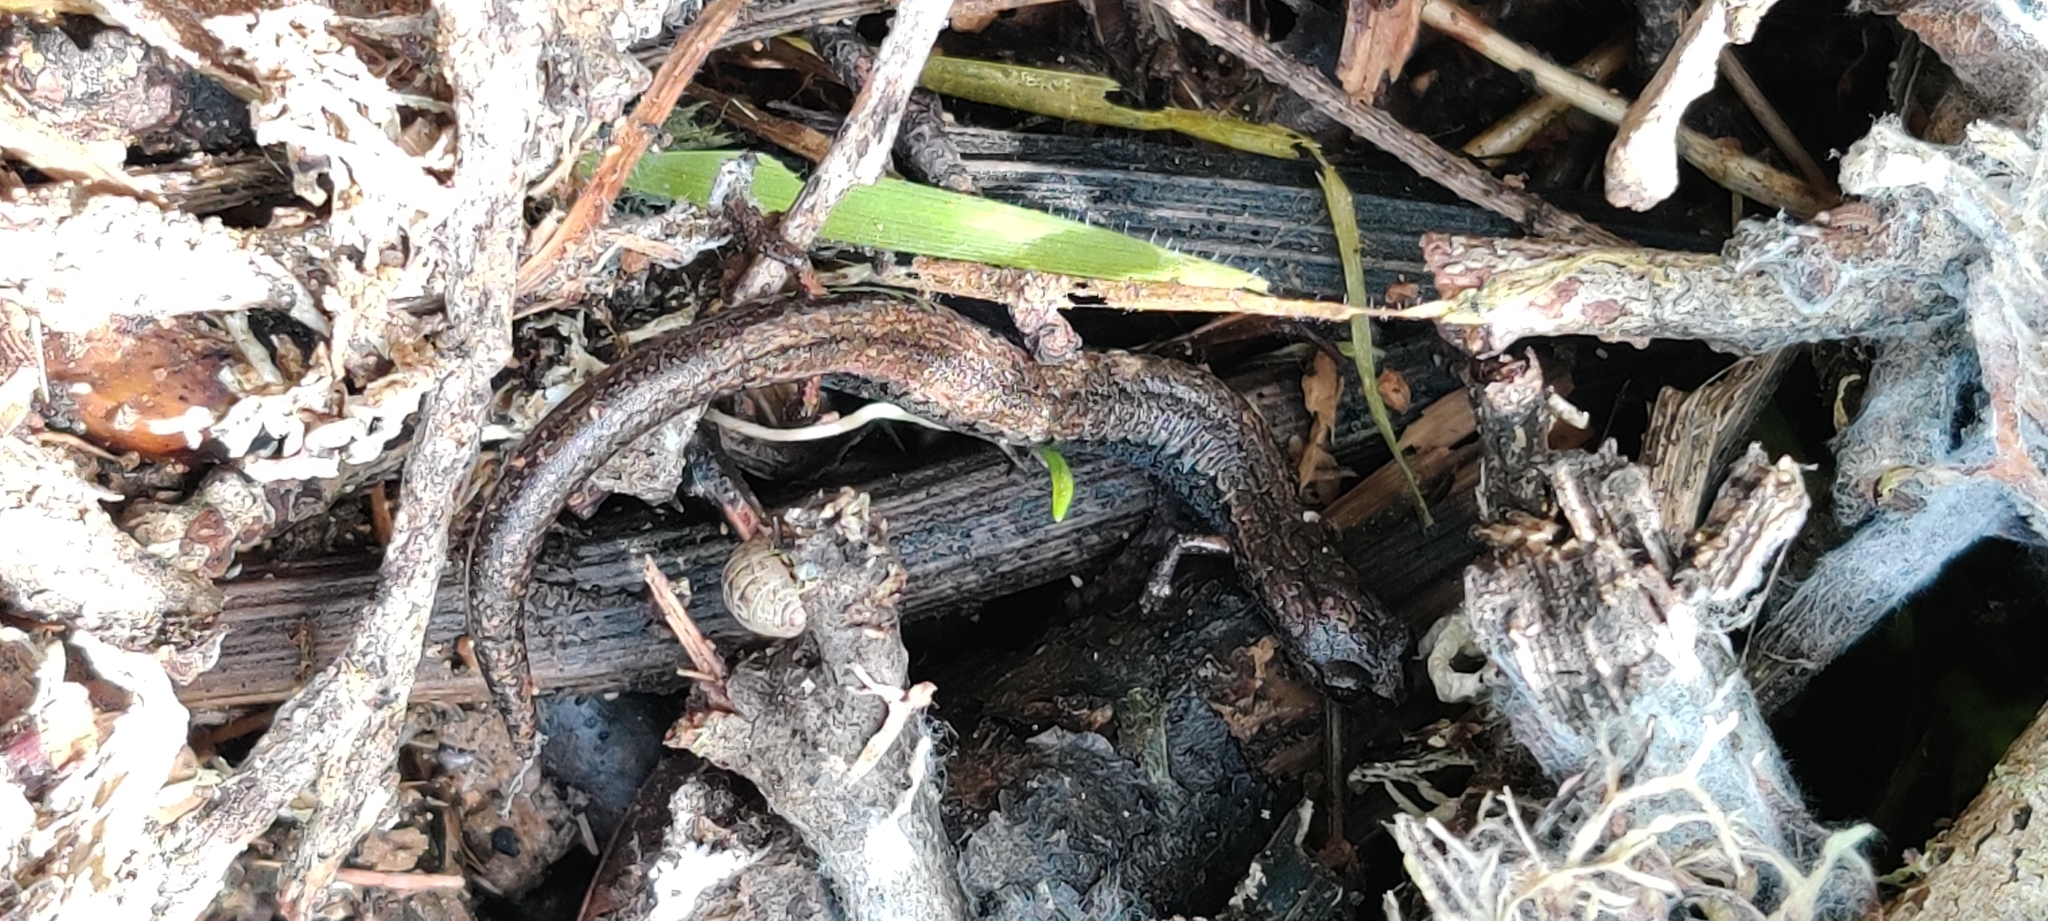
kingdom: Animalia
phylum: Chordata
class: Amphibia
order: Caudata
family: Plethodontidae
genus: Batrachoseps
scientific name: Batrachoseps attenuatus
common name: California slender salamander
